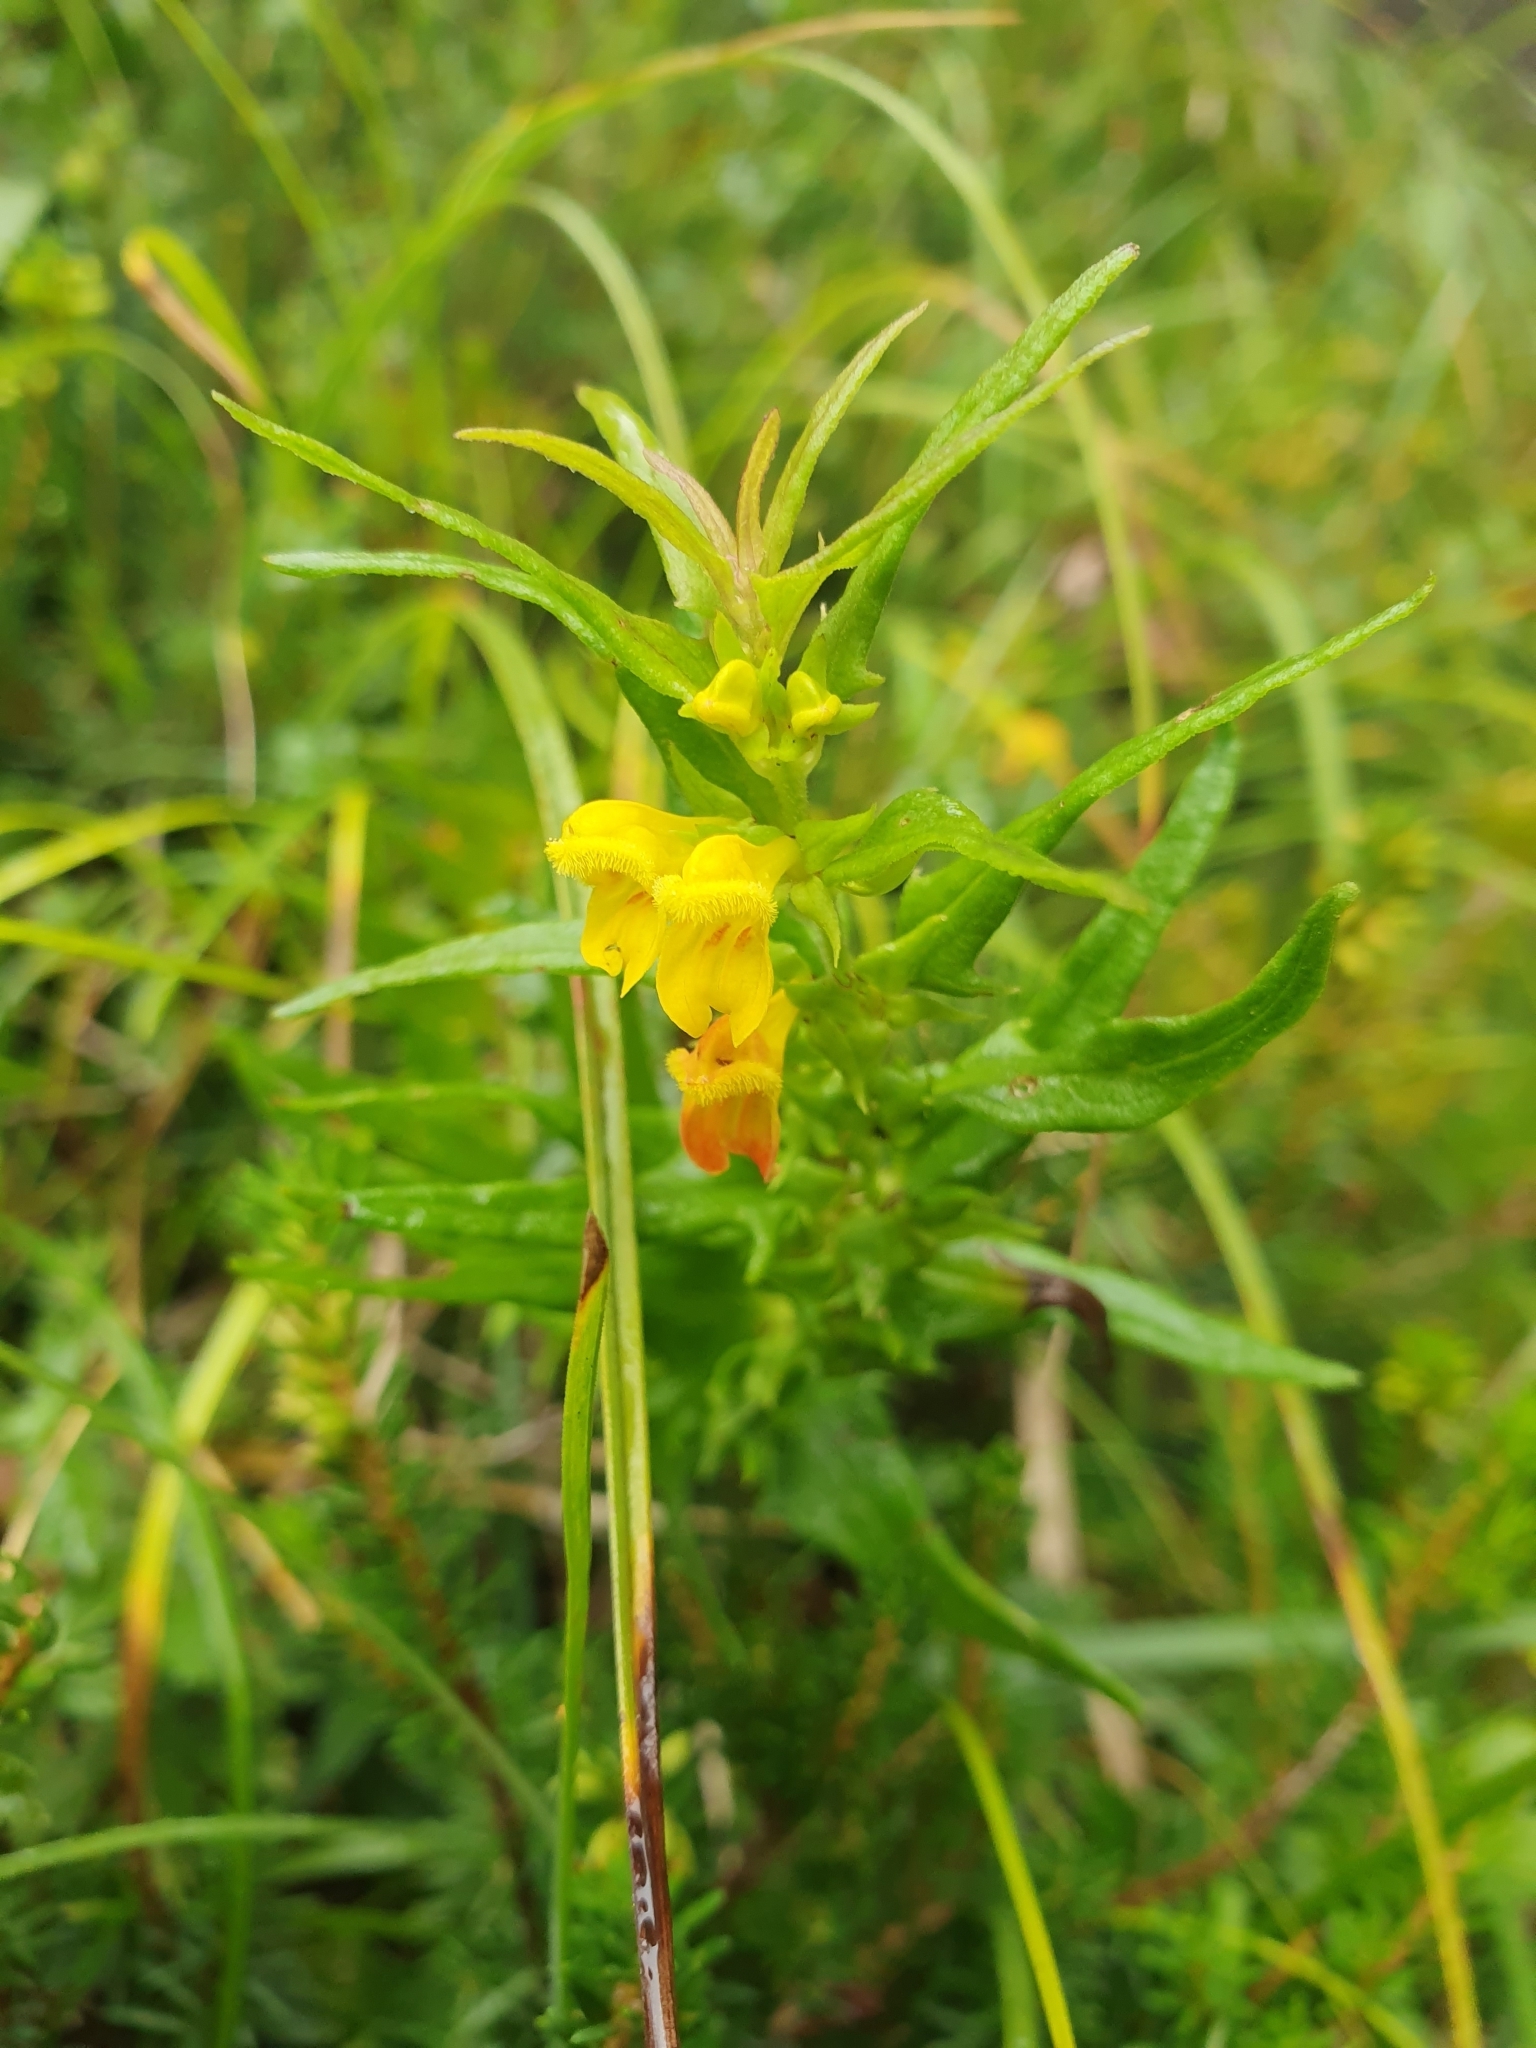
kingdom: Plantae
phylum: Tracheophyta
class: Magnoliopsida
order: Lamiales
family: Orobanchaceae
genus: Melampyrum
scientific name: Melampyrum sylvaticum
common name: Small cow-wheat
